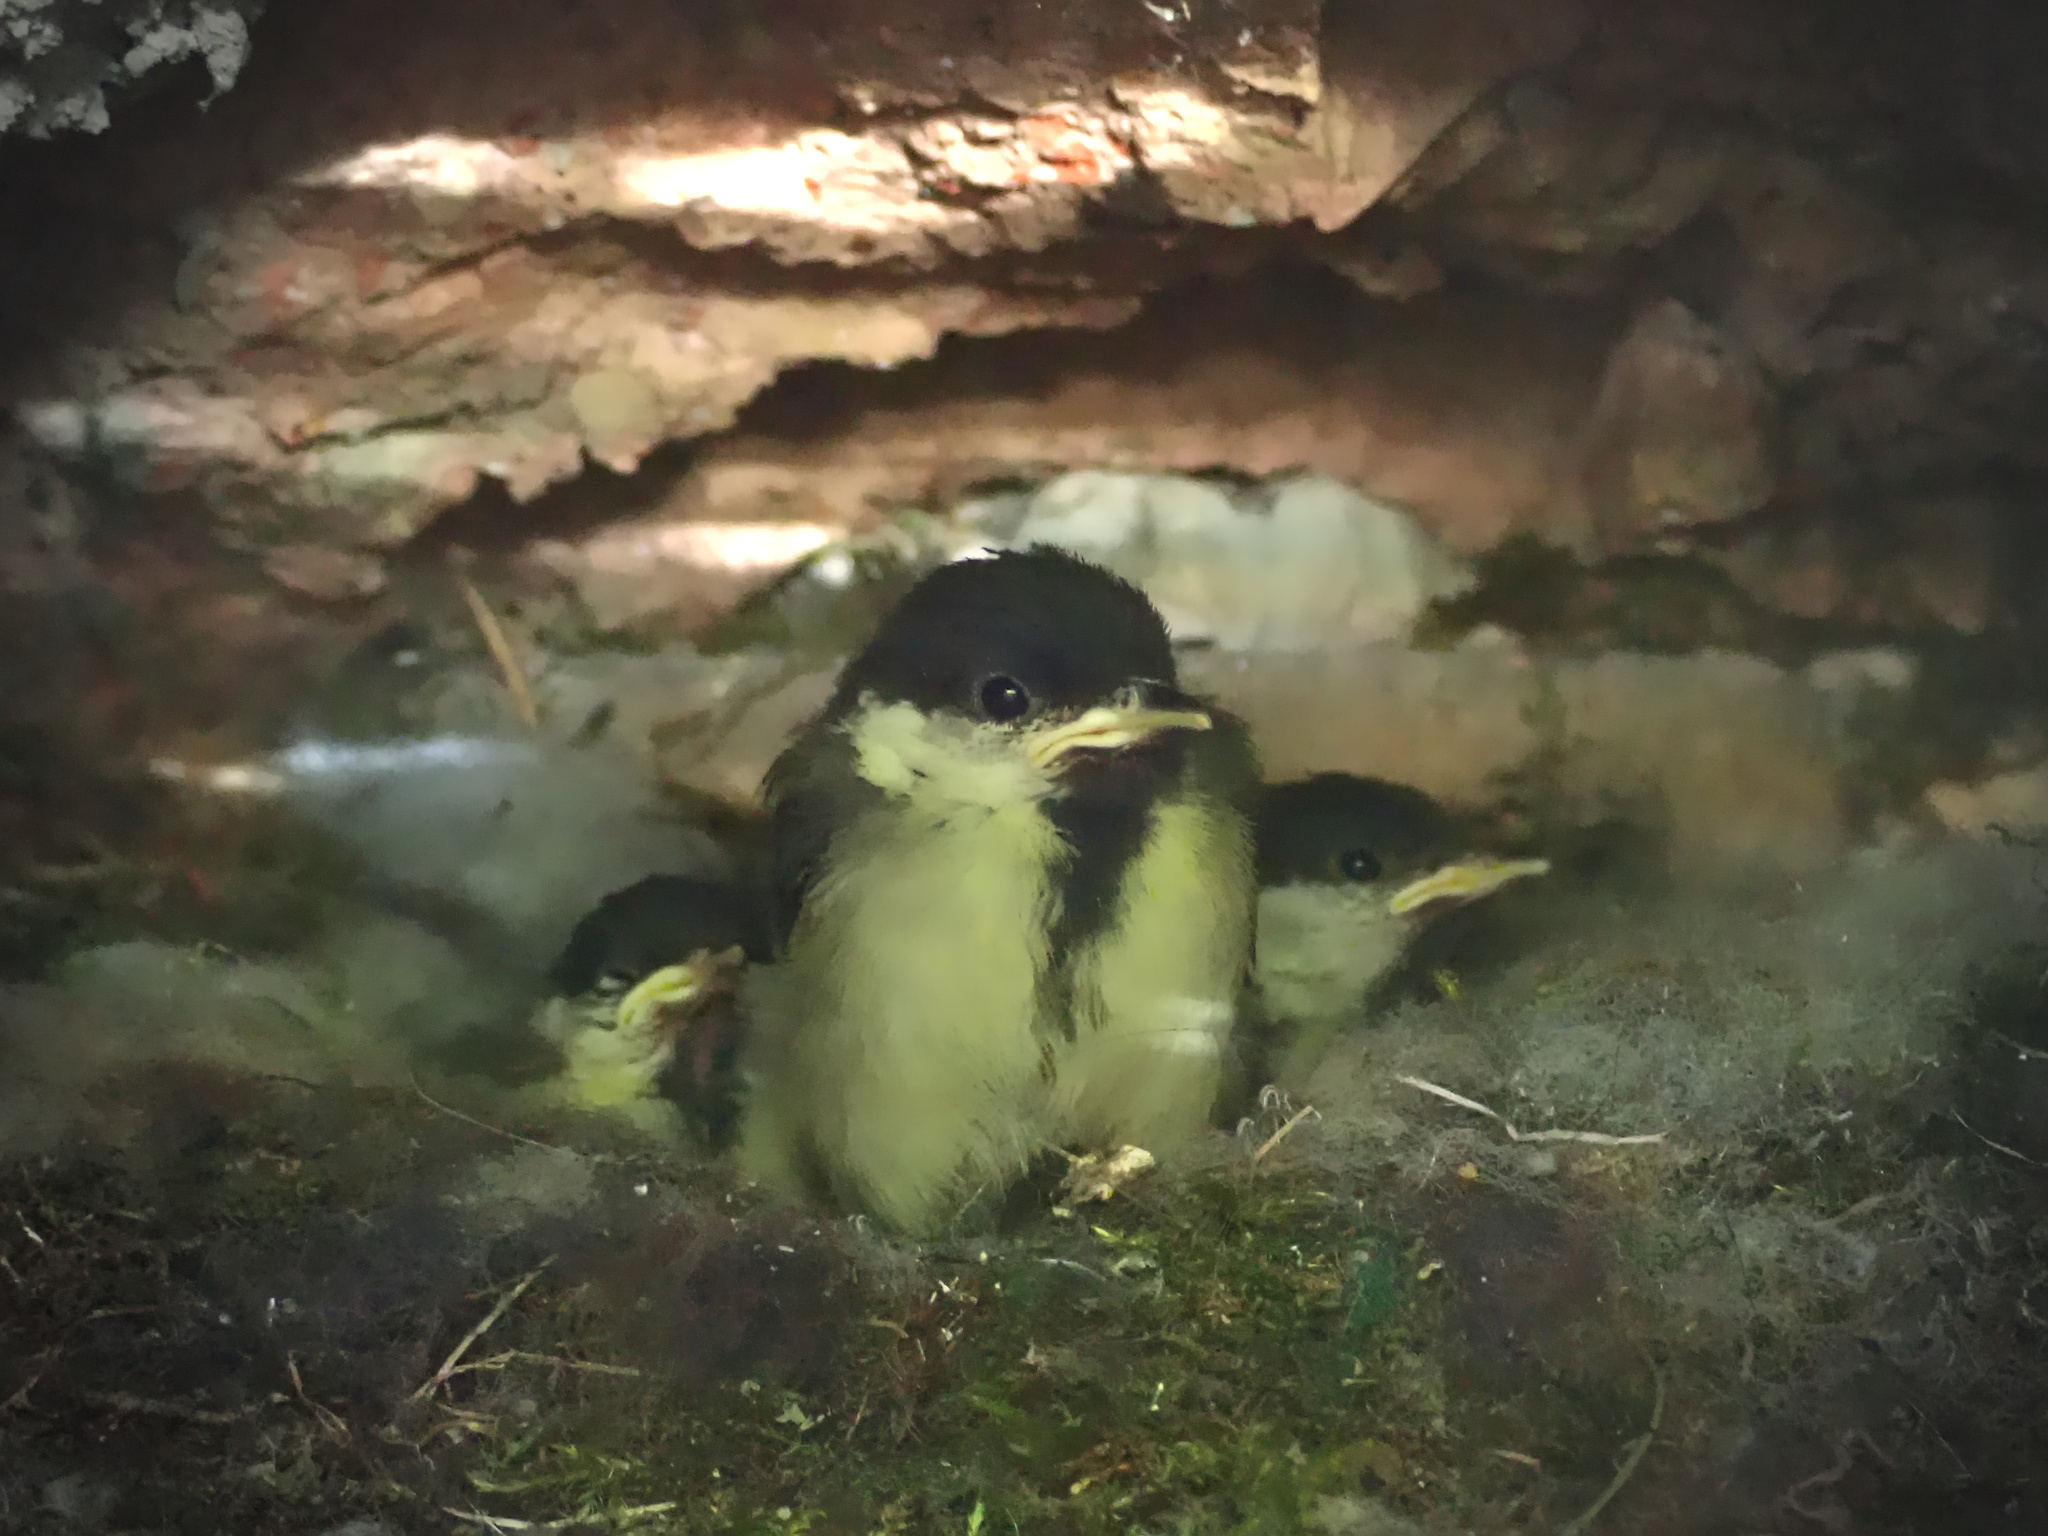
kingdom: Animalia
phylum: Chordata
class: Aves
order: Passeriformes
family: Paridae
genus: Parus
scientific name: Parus major
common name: Great tit
